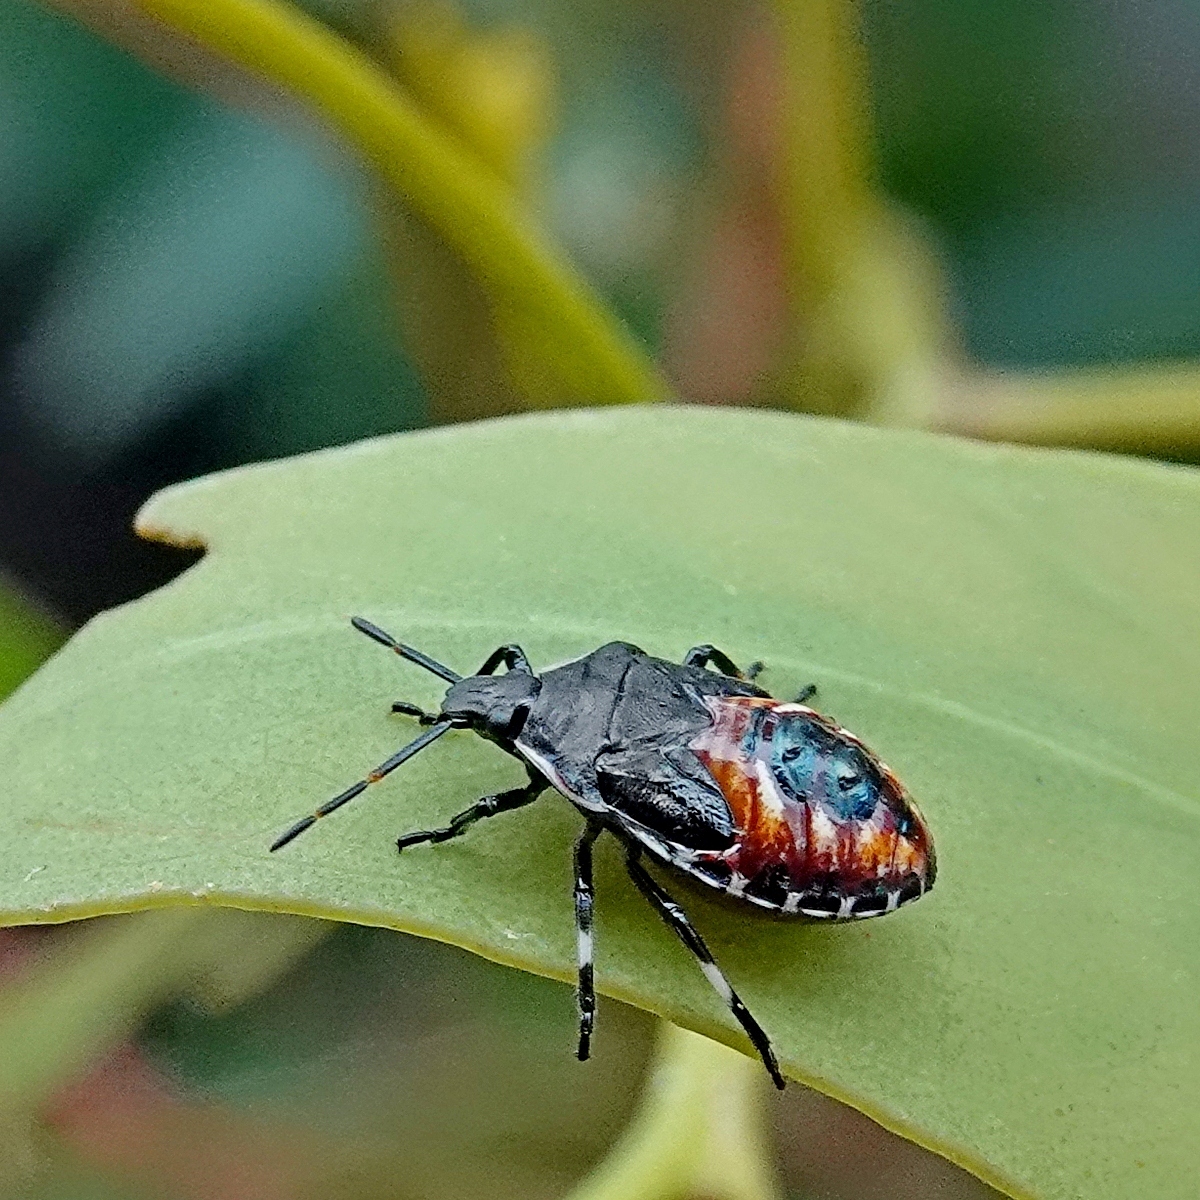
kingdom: Animalia
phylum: Arthropoda
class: Insecta
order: Hemiptera
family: Pentatomidae
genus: Oechalia
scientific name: Oechalia schellenbergii
